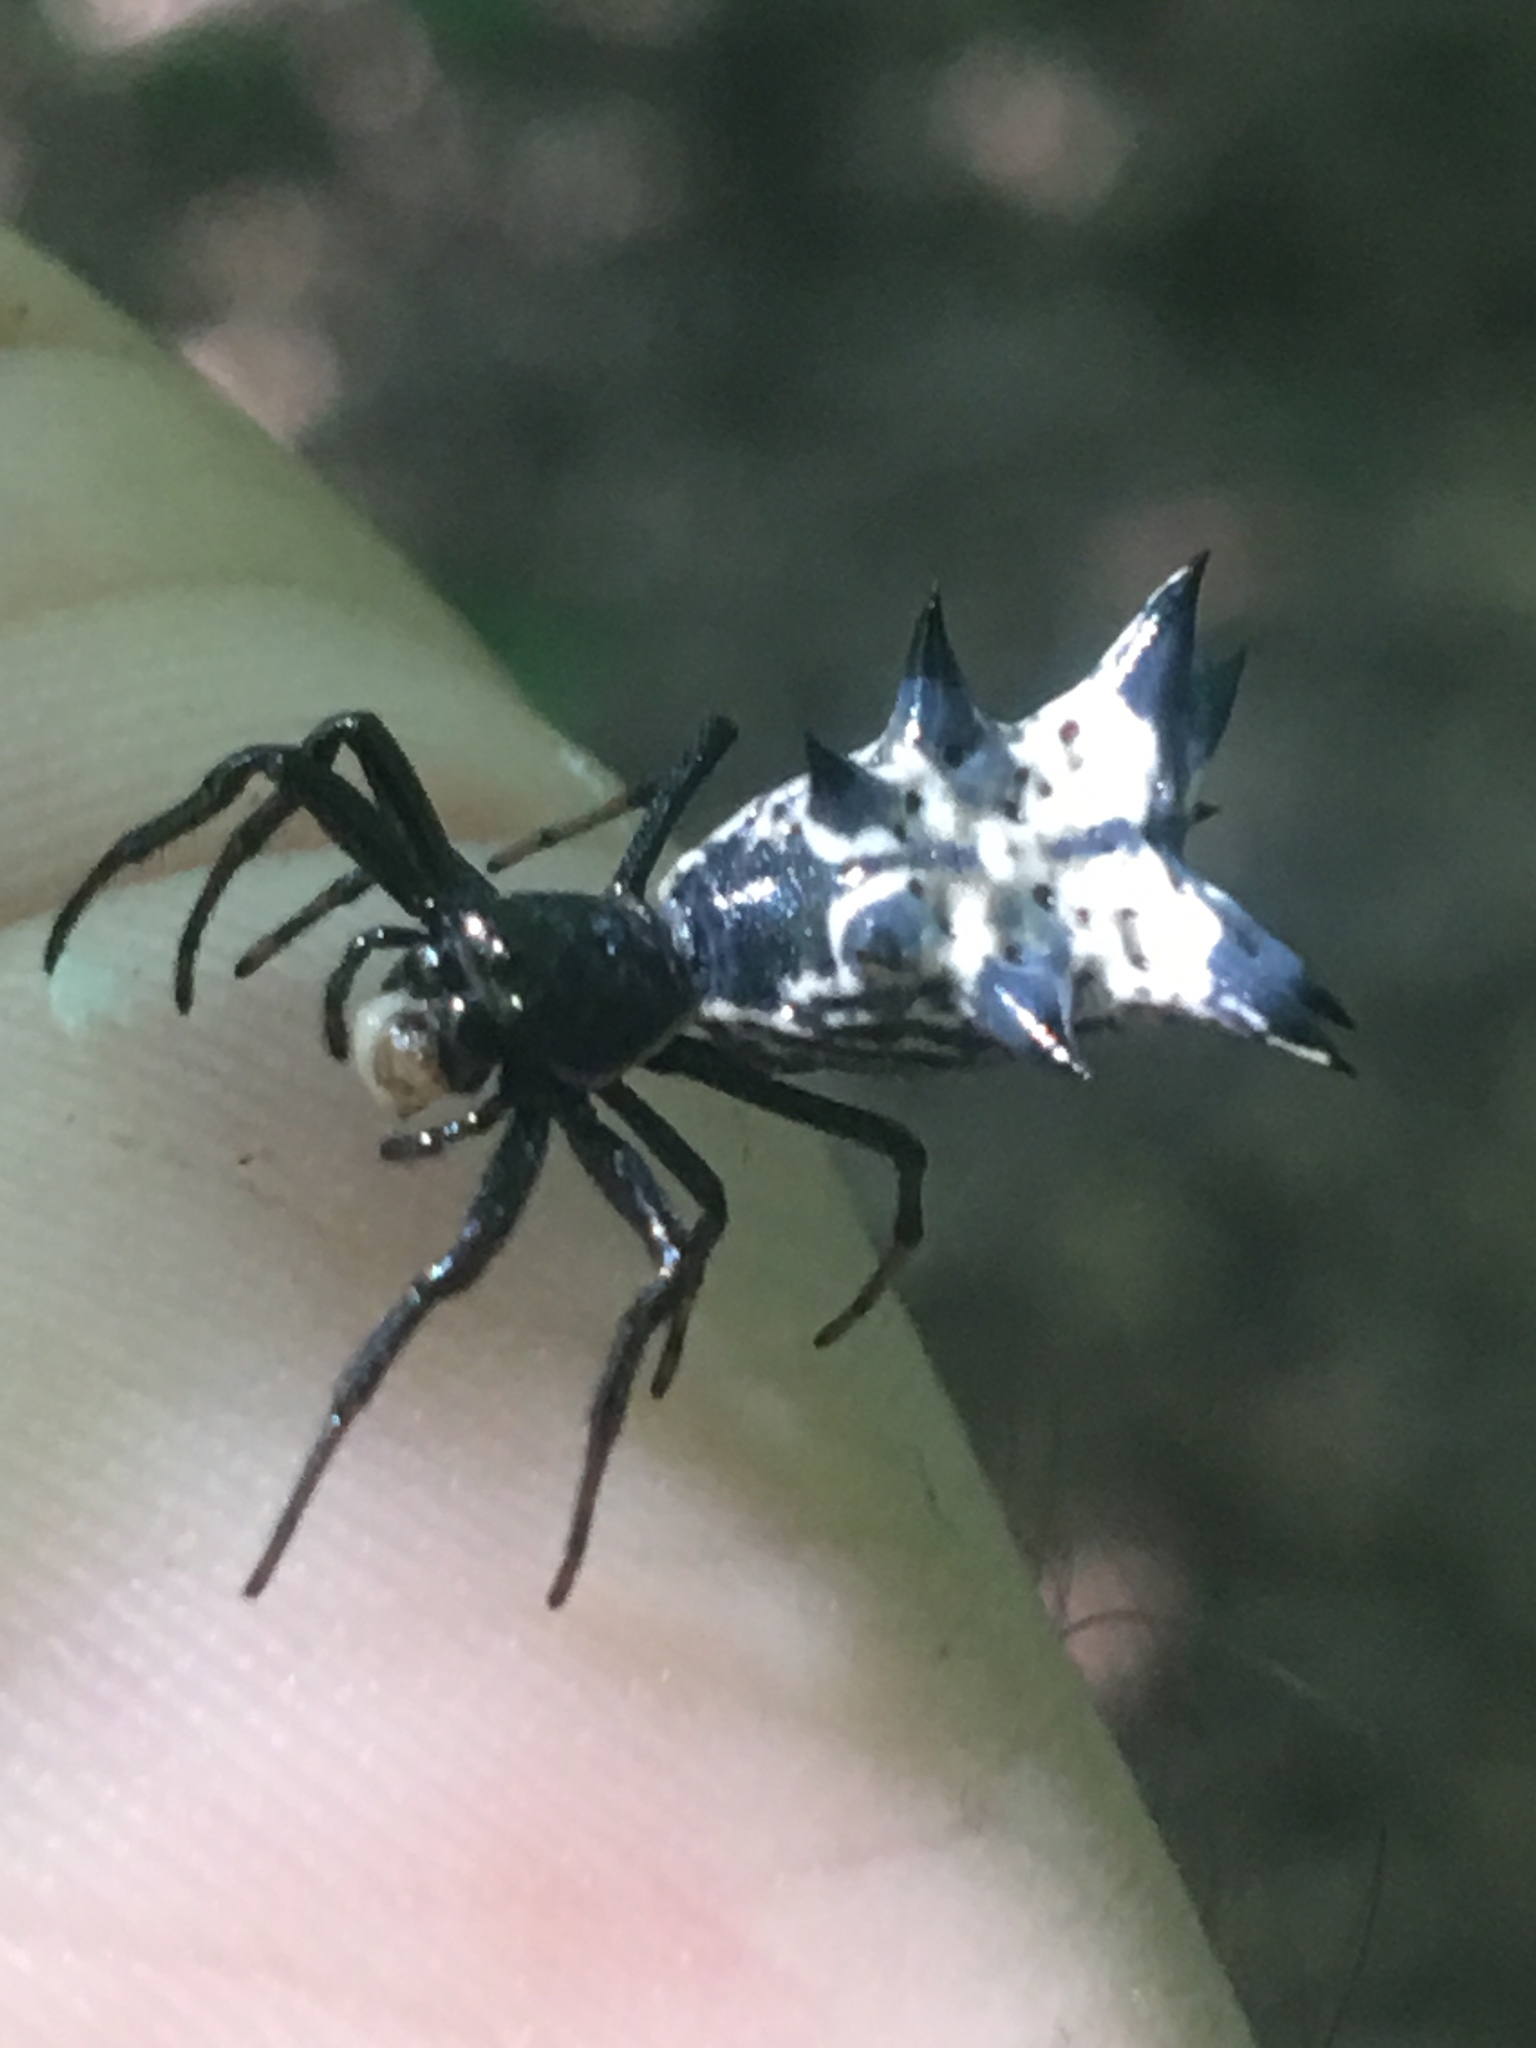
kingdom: Animalia
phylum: Arthropoda
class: Arachnida
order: Araneae
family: Araneidae
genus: Micrathena
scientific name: Micrathena gracilis
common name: Orb weavers
